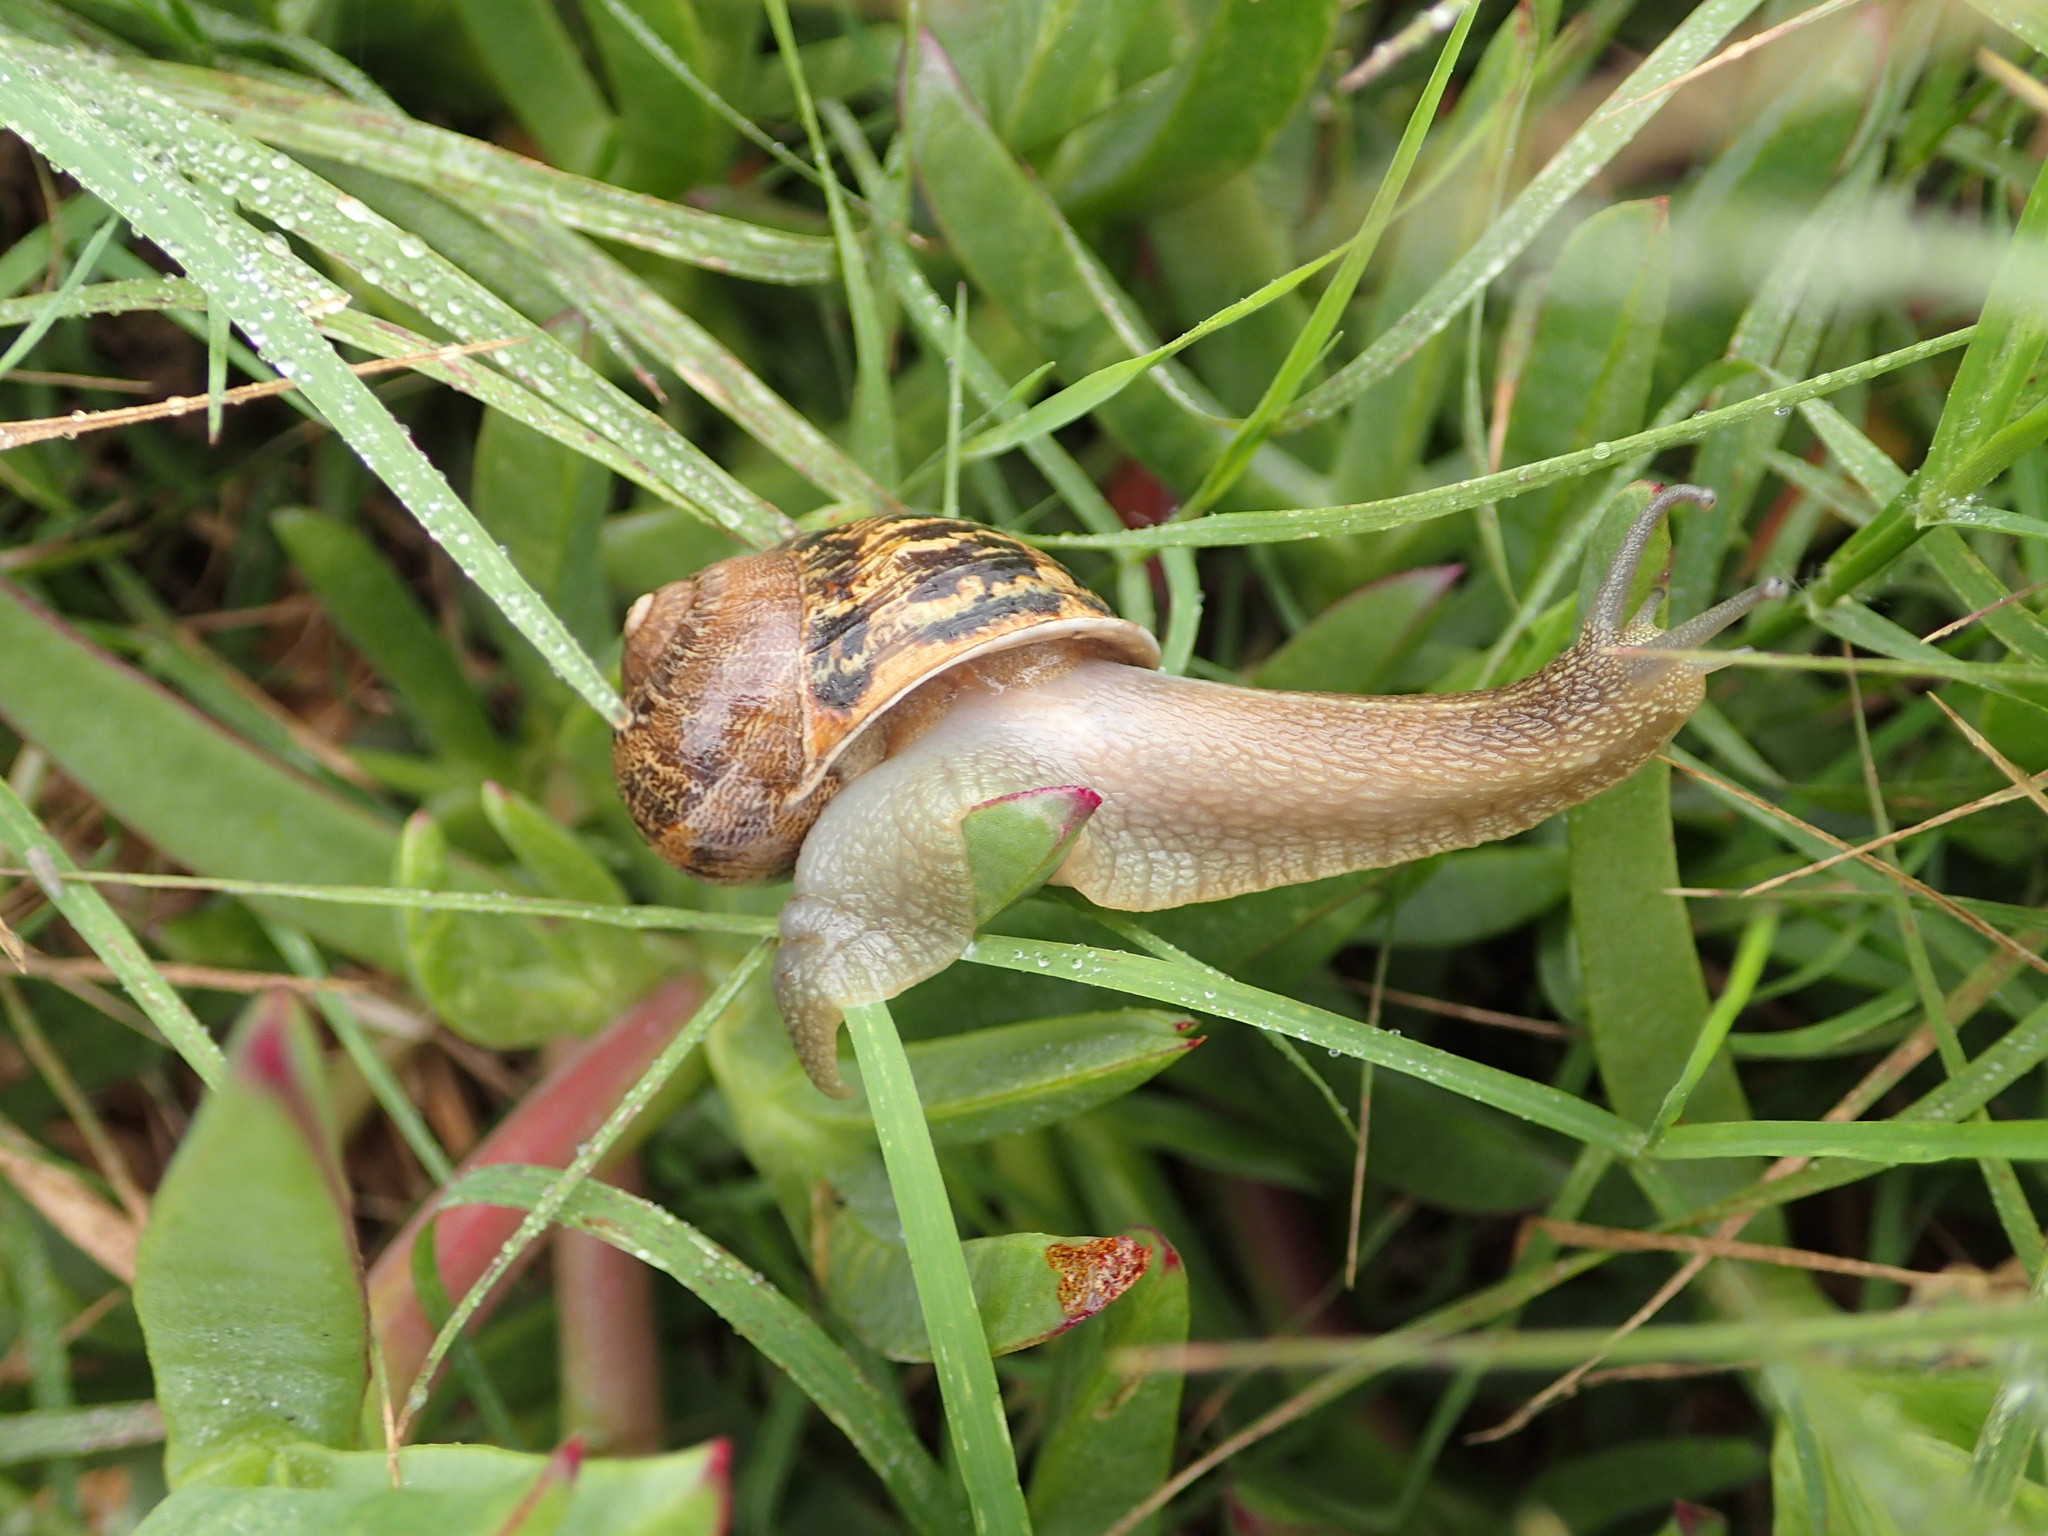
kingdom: Animalia
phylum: Mollusca
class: Gastropoda
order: Stylommatophora
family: Helicidae
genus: Cornu
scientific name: Cornu aspersum
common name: Brown garden snail
